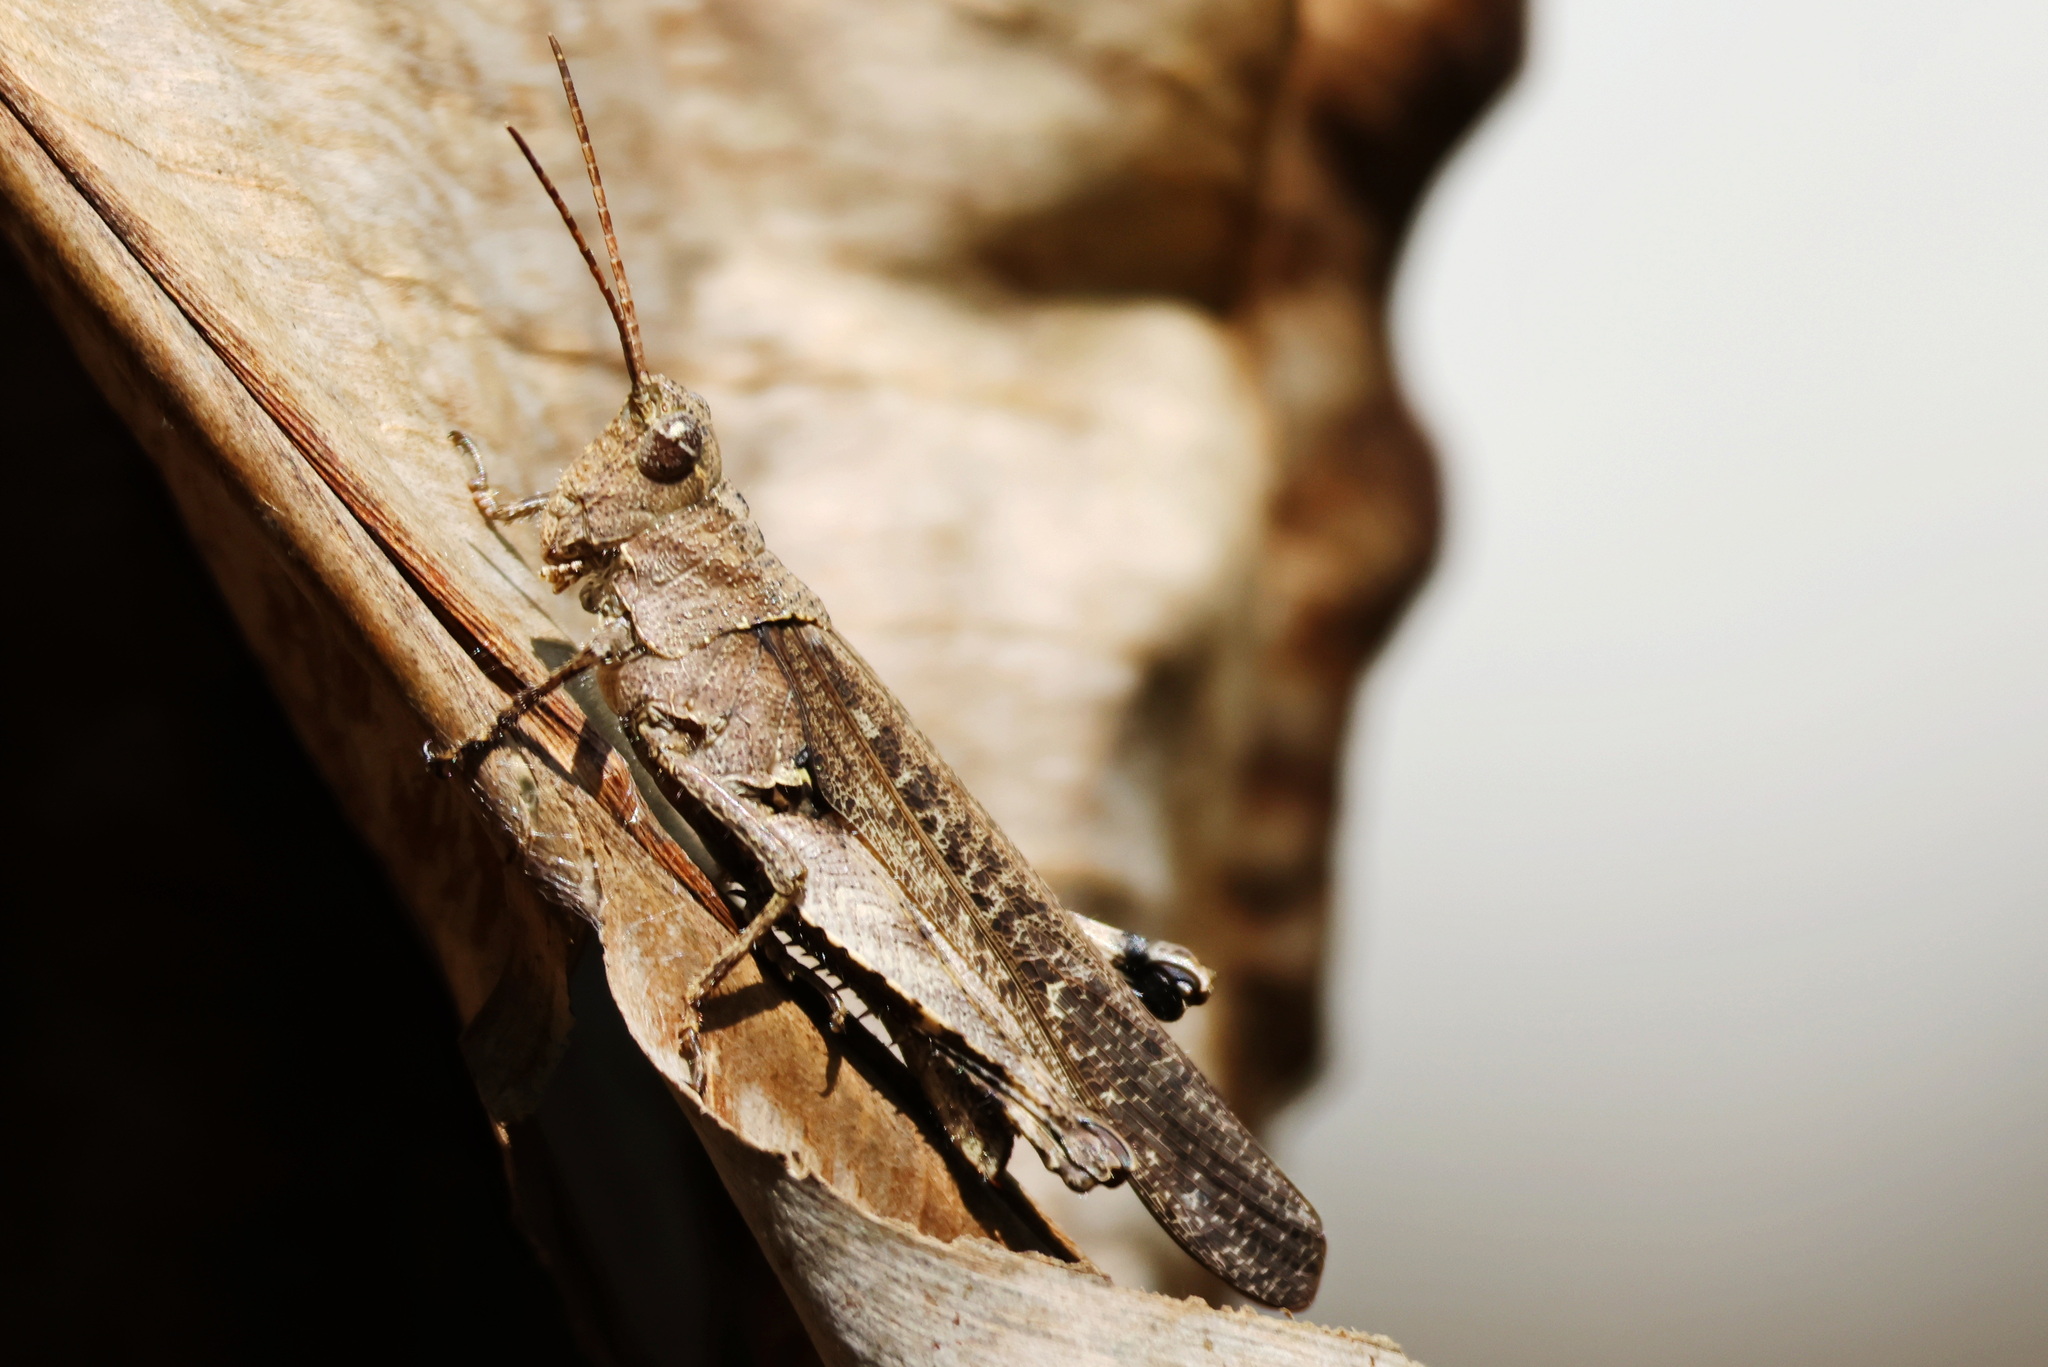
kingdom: Animalia
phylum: Arthropoda
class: Insecta
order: Orthoptera
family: Acrididae
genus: Machaerocera
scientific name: Machaerocera mexicana
